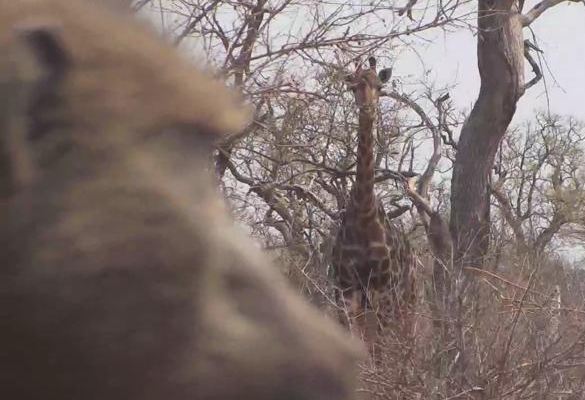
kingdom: Animalia
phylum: Chordata
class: Mammalia
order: Artiodactyla
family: Giraffidae
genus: Giraffa
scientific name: Giraffa giraffa
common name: Southern giraffe
